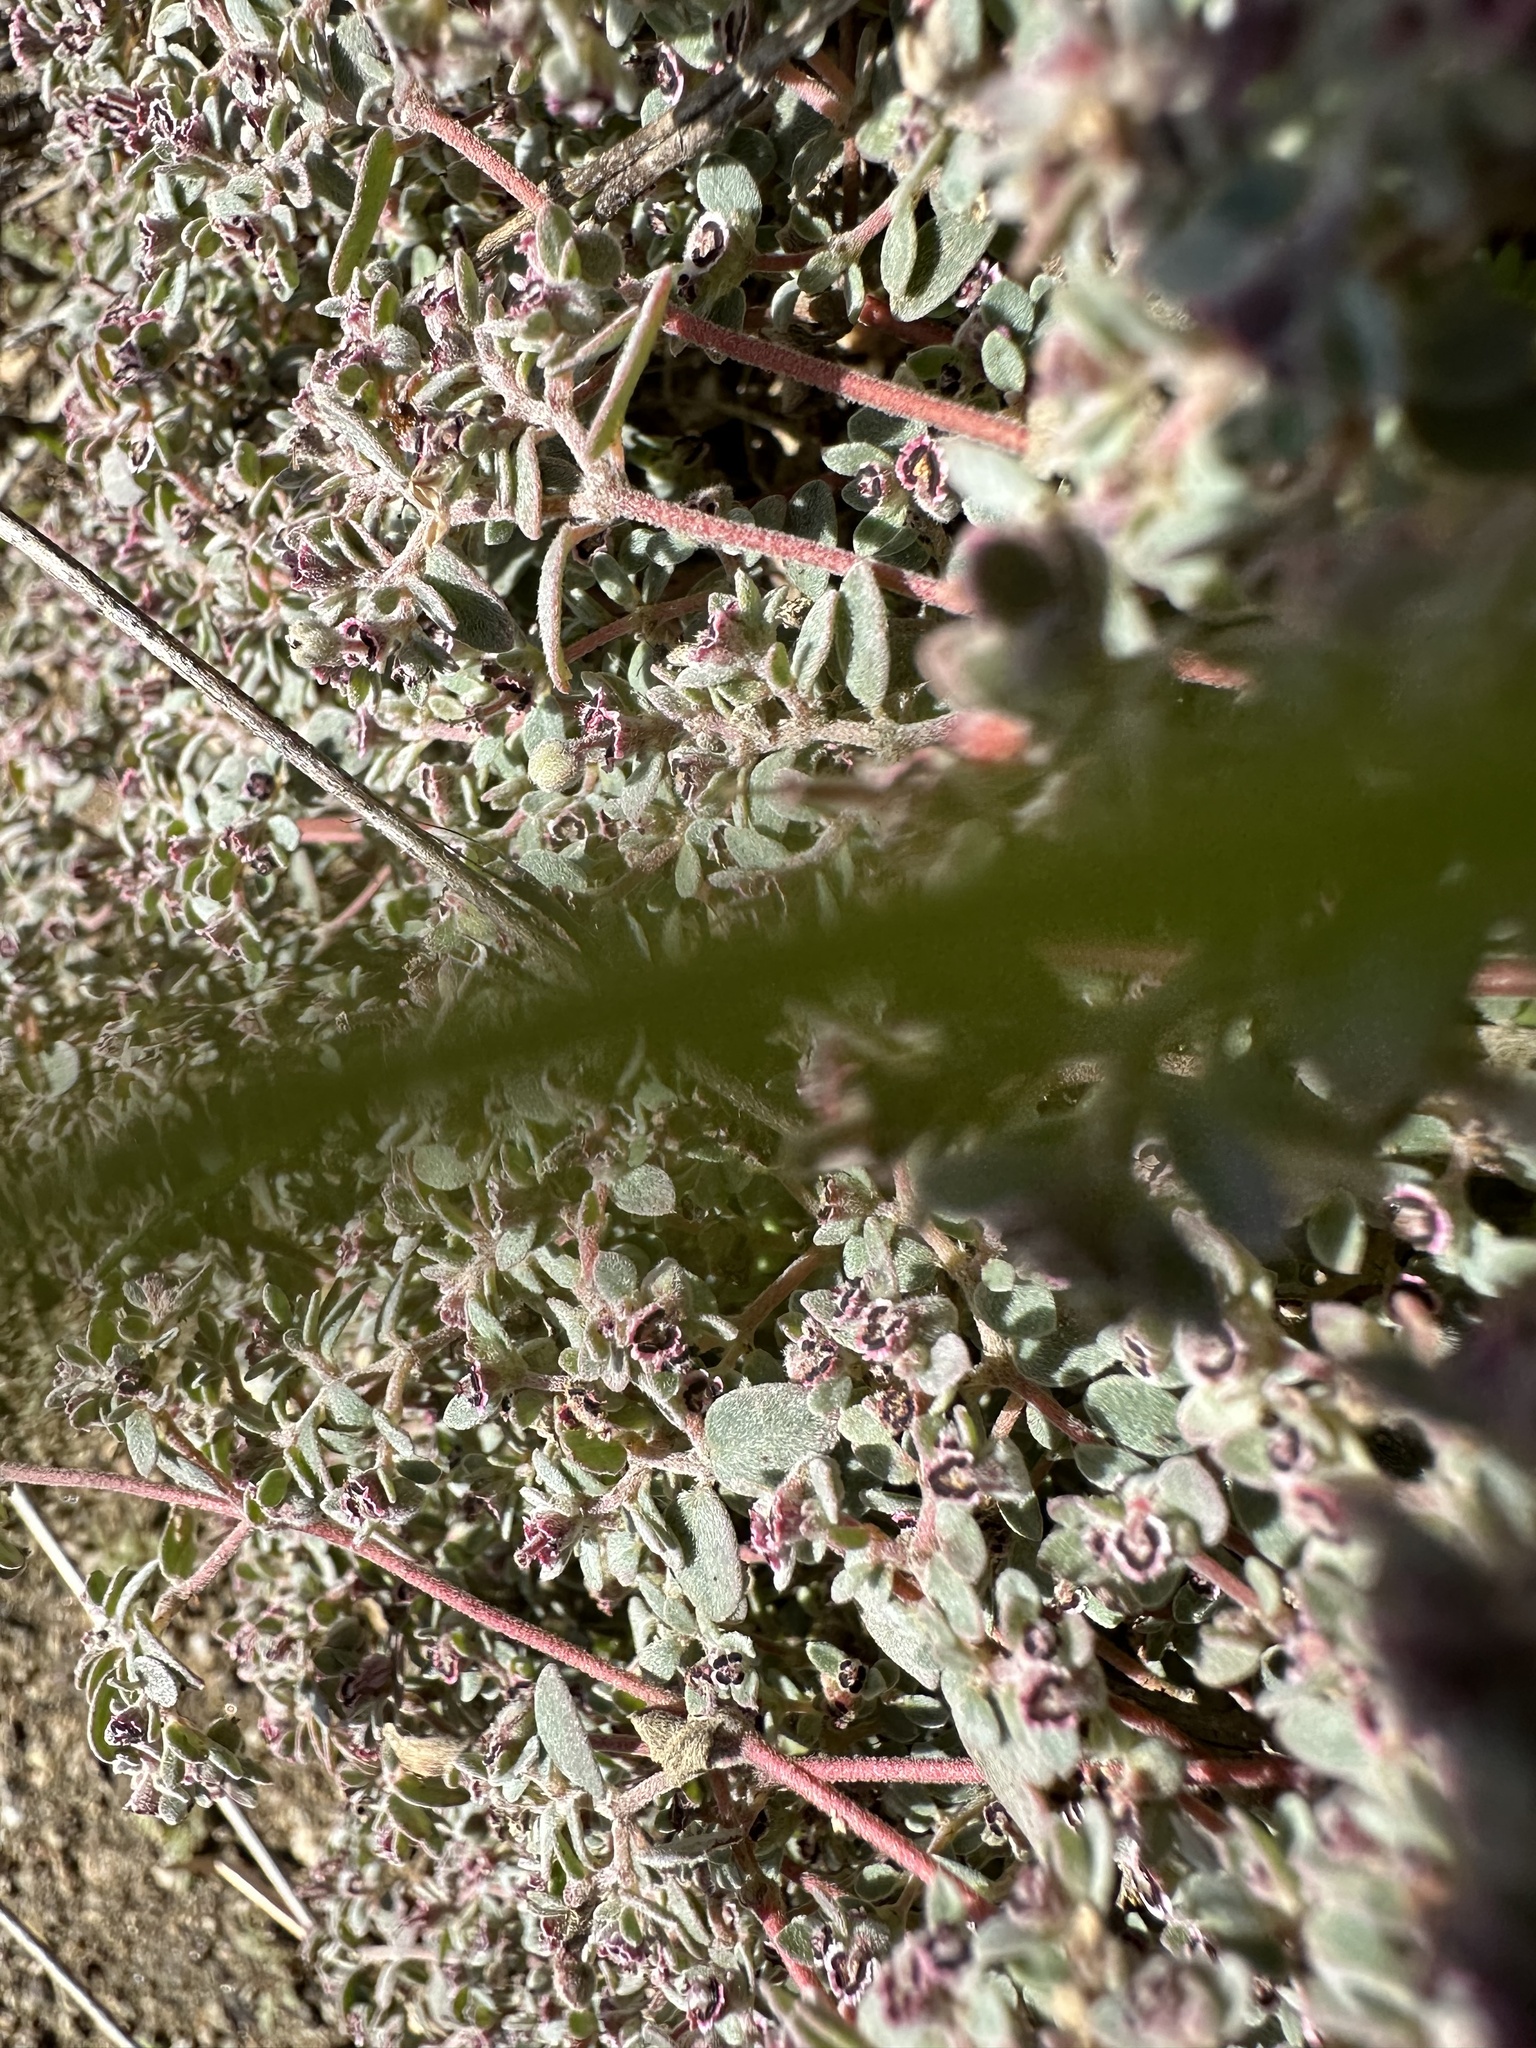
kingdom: Plantae
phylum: Tracheophyta
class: Magnoliopsida
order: Malpighiales
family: Euphorbiaceae
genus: Euphorbia
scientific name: Euphorbia melanadenia
